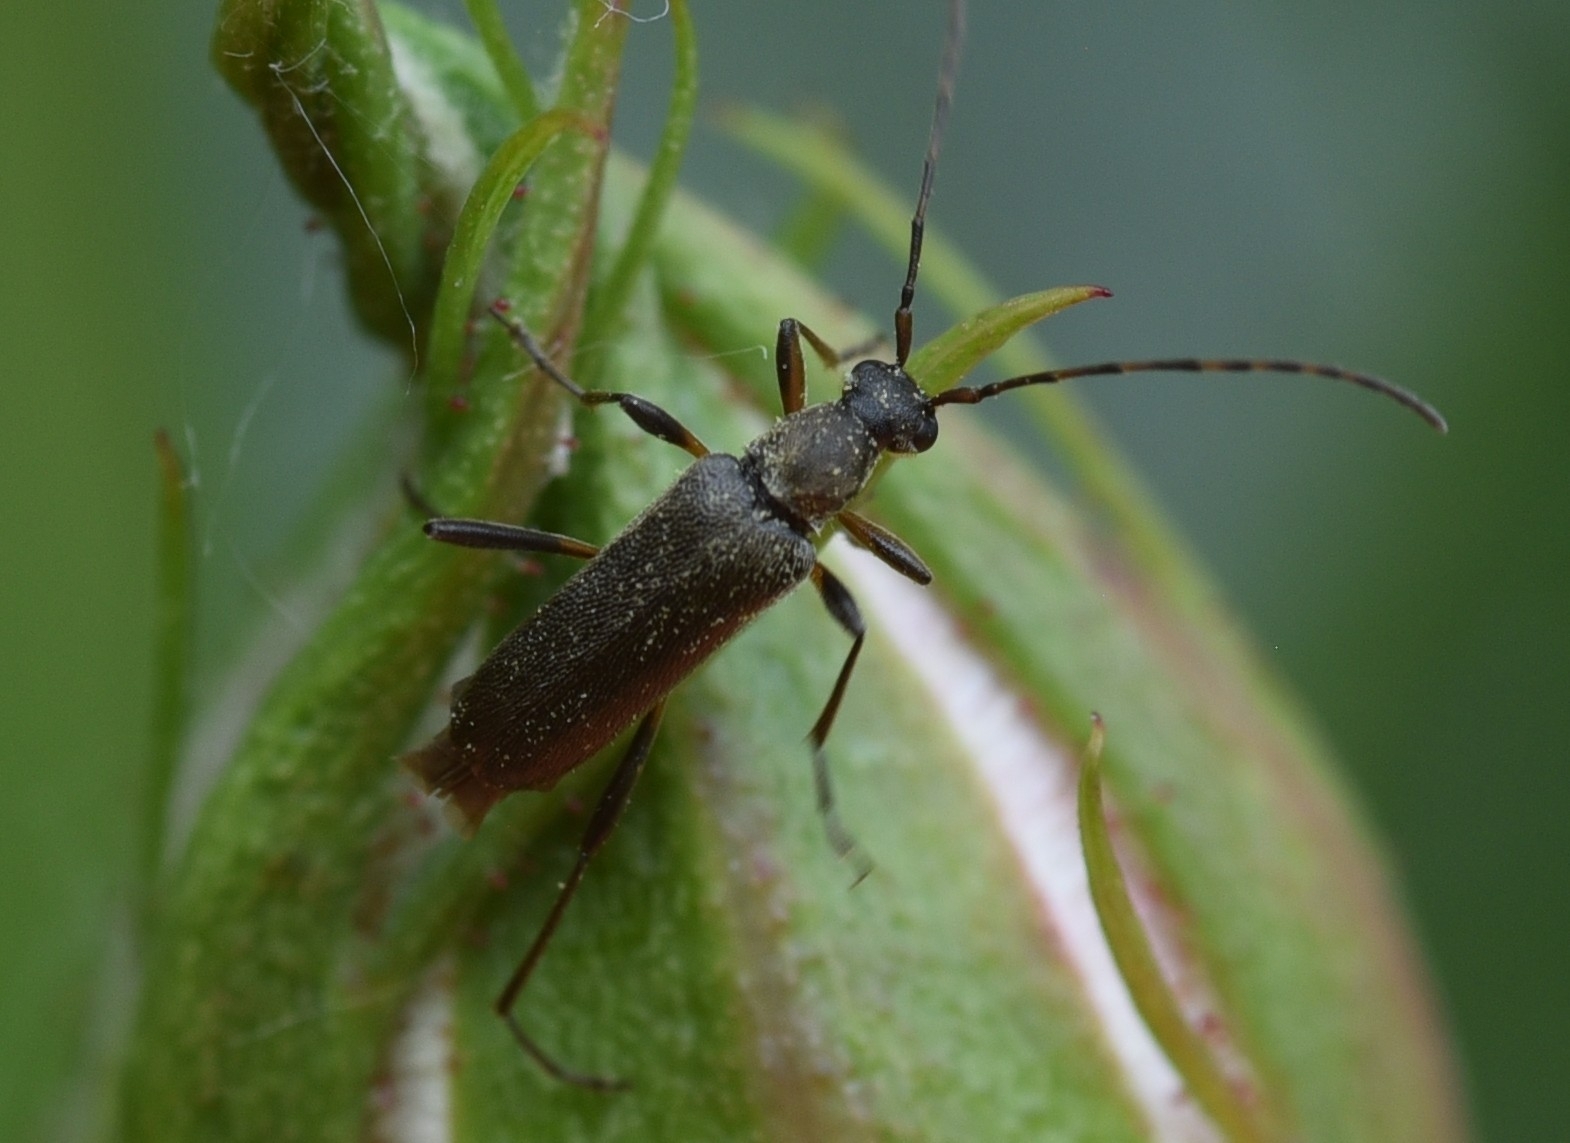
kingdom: Animalia
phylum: Arthropoda
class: Insecta
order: Coleoptera
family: Cerambycidae
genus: Grammoptera
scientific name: Grammoptera ruficornis
